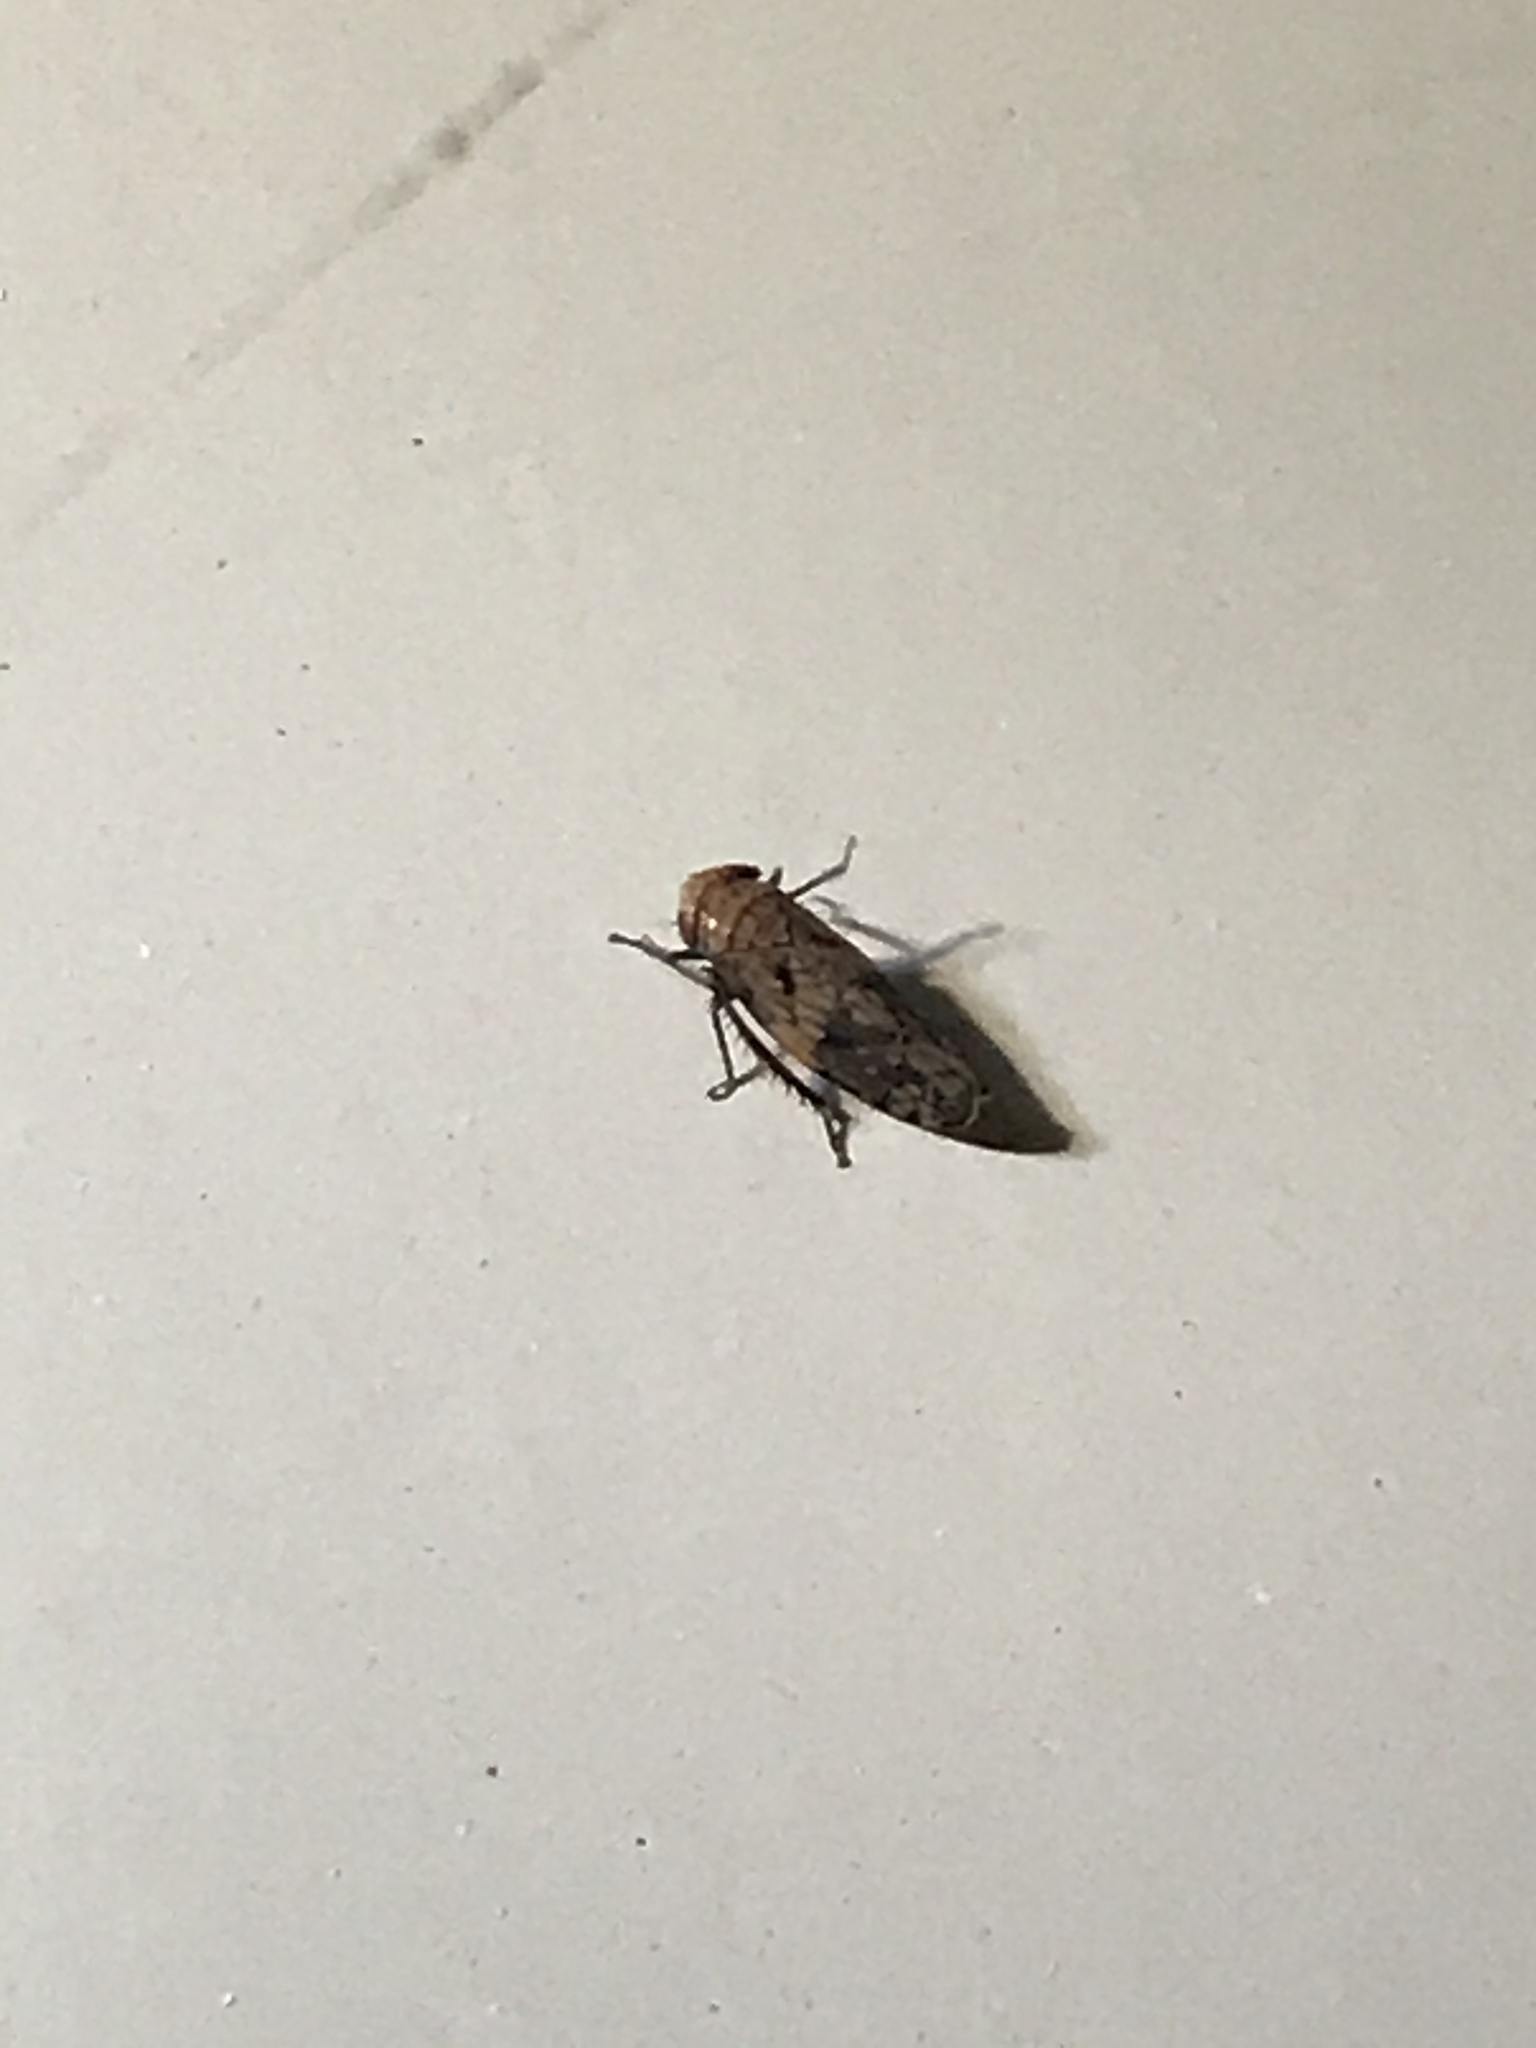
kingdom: Animalia
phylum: Arthropoda
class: Insecta
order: Hemiptera
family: Cicadellidae
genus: Menosoma
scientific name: Menosoma cinctum
